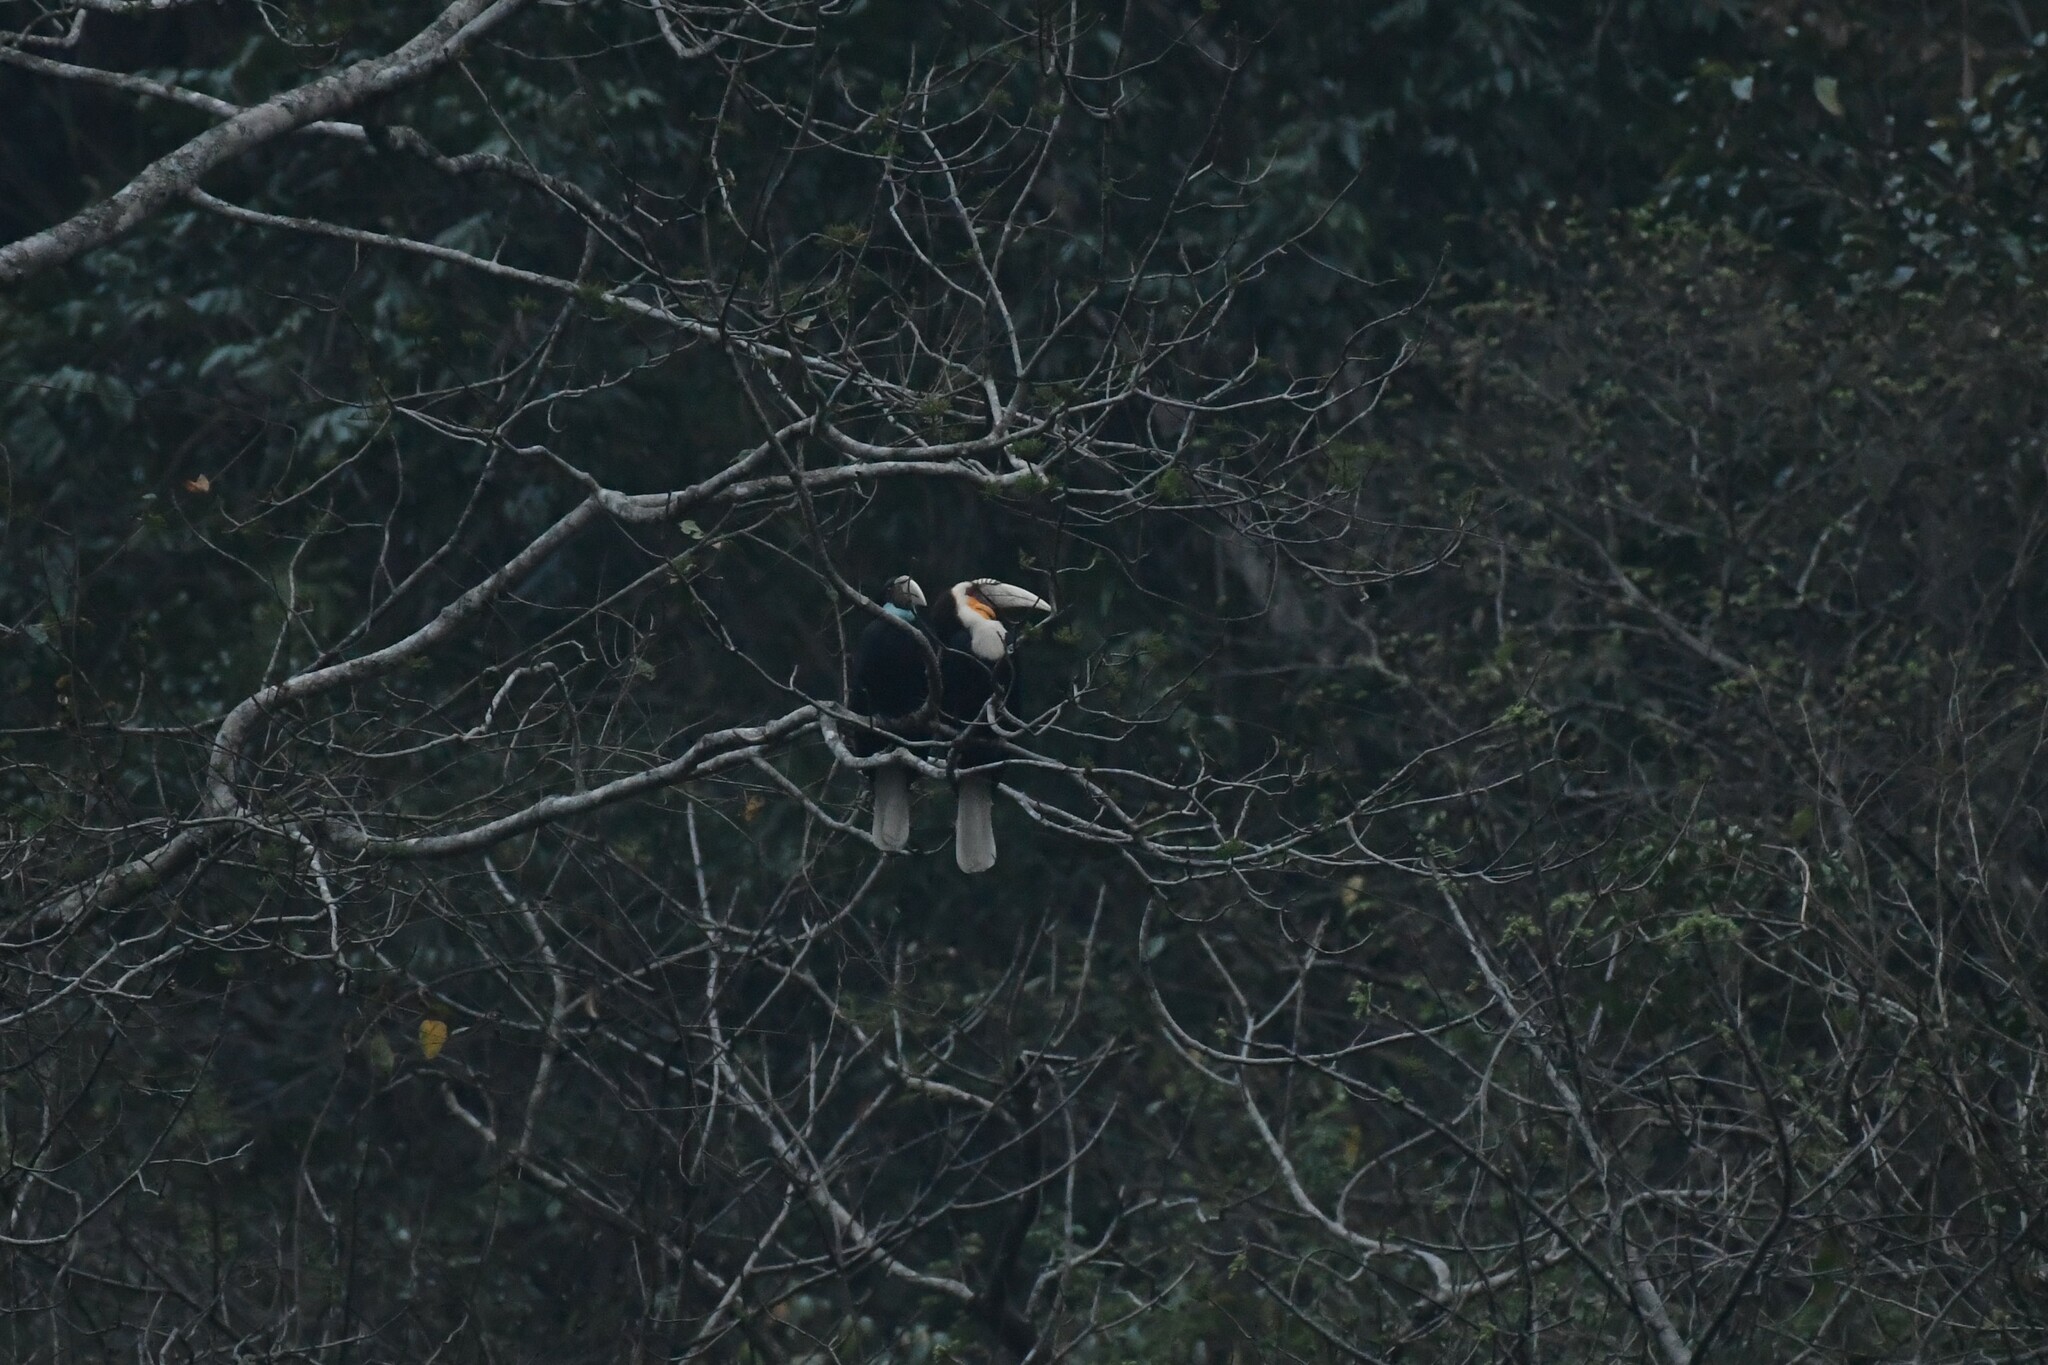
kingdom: Animalia
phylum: Chordata
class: Aves
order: Bucerotiformes
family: Bucerotidae
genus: Rhyticeros
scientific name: Rhyticeros undulatus
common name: Wreathed hornbill
